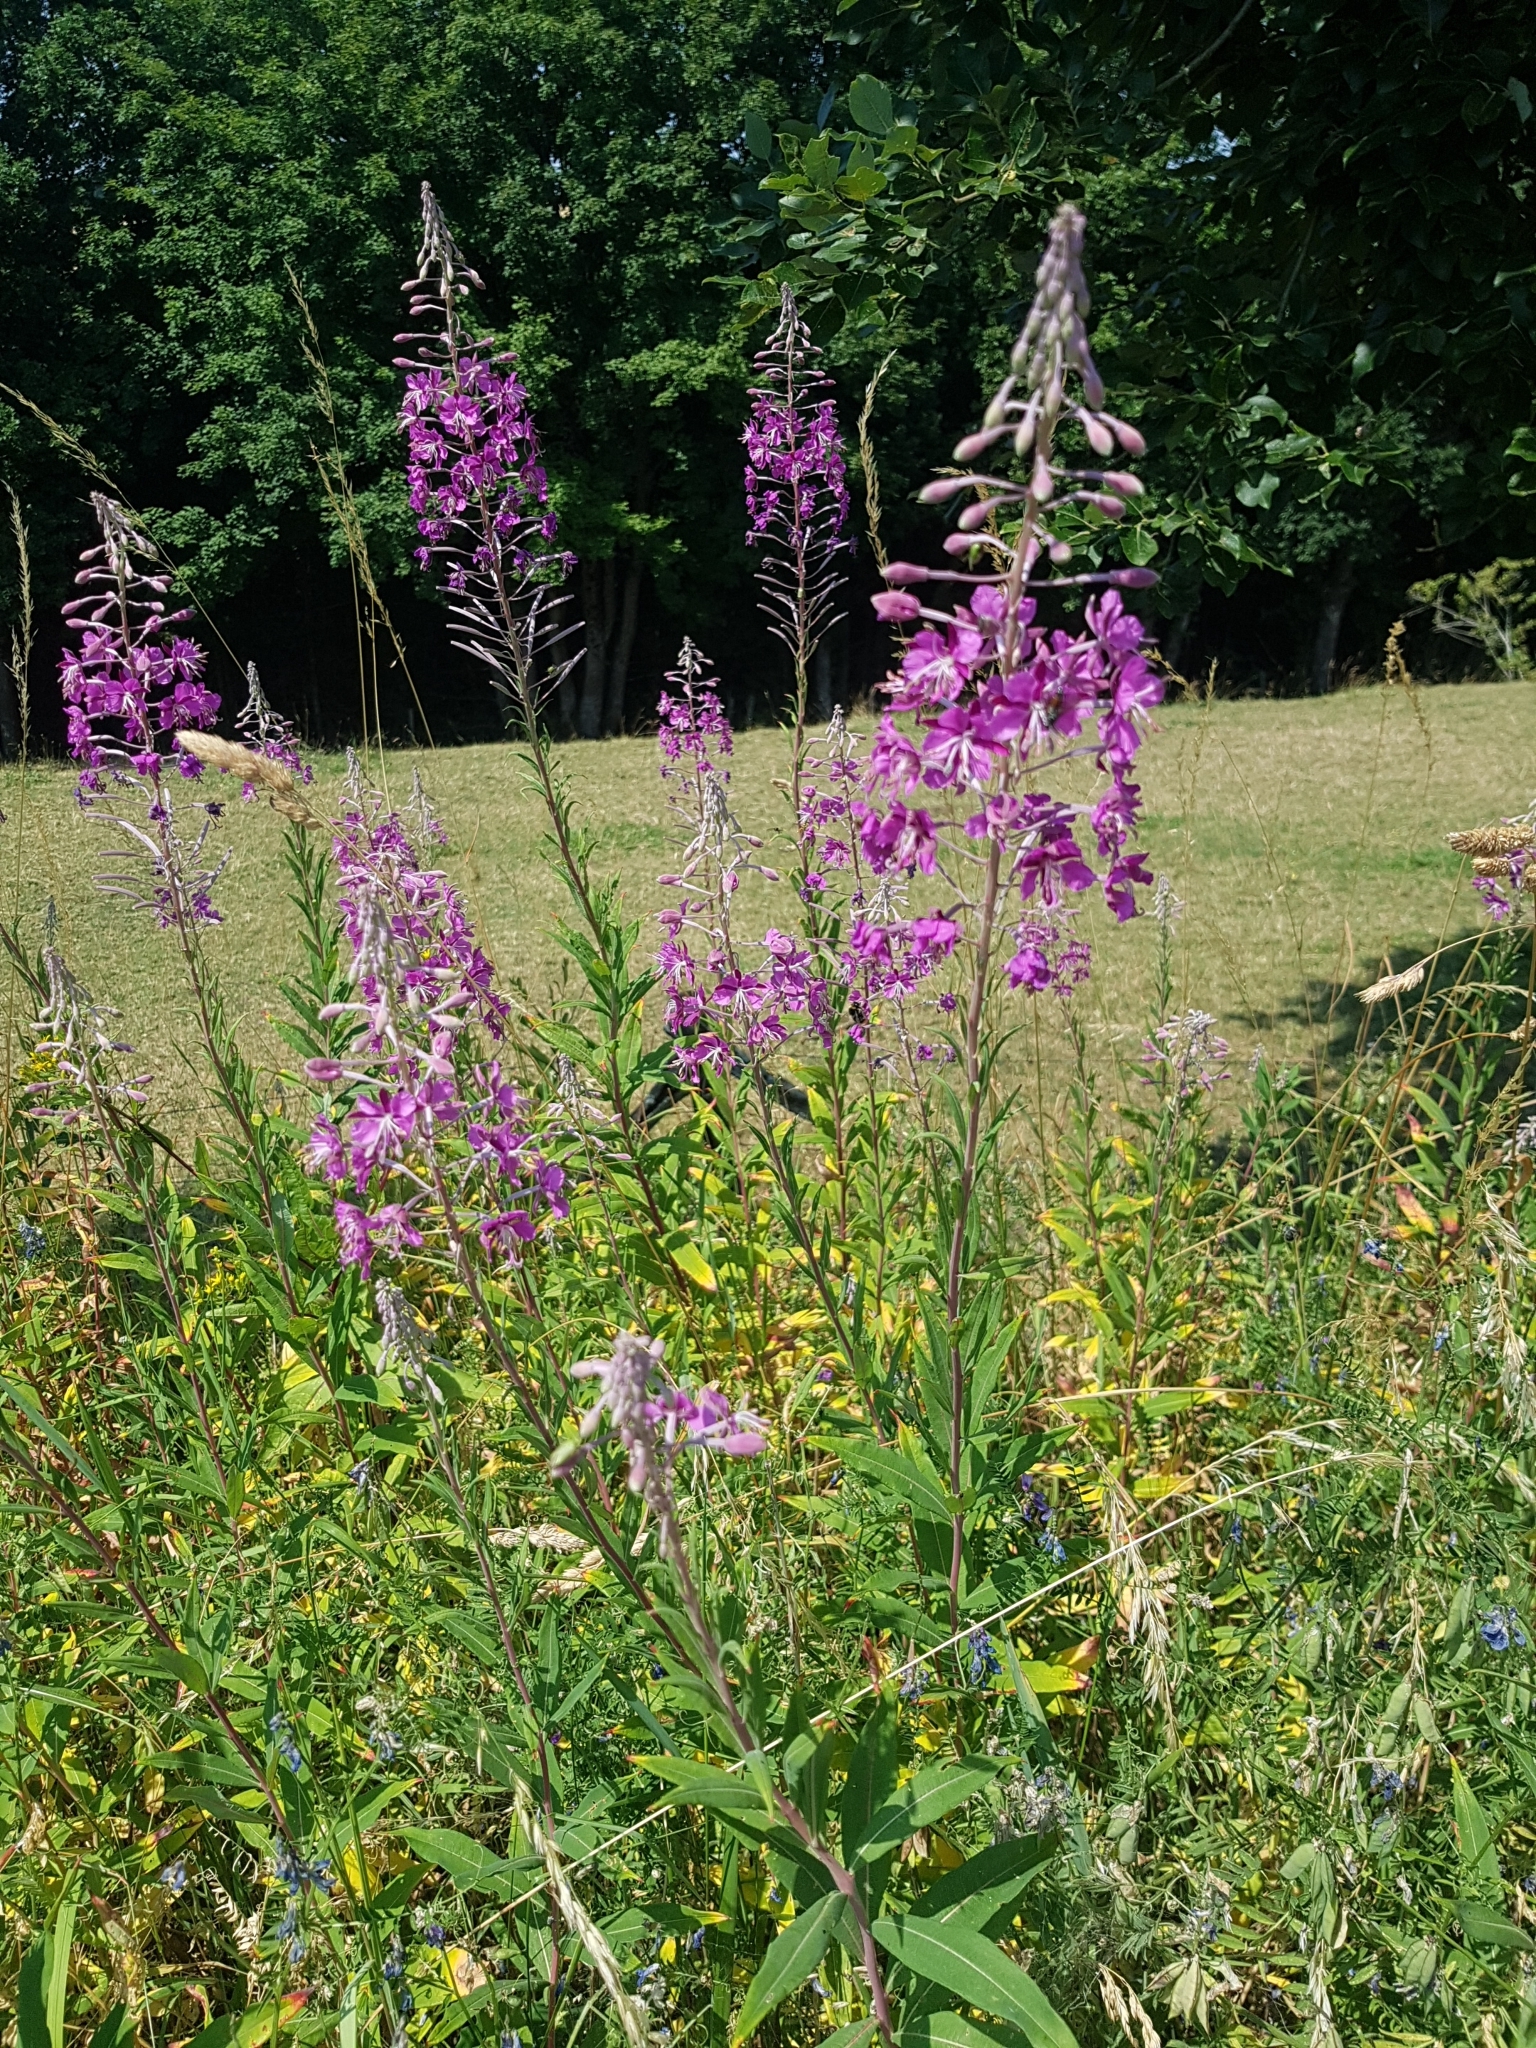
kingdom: Plantae
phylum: Tracheophyta
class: Magnoliopsida
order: Myrtales
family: Onagraceae
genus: Chamaenerion
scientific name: Chamaenerion angustifolium
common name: Fireweed
